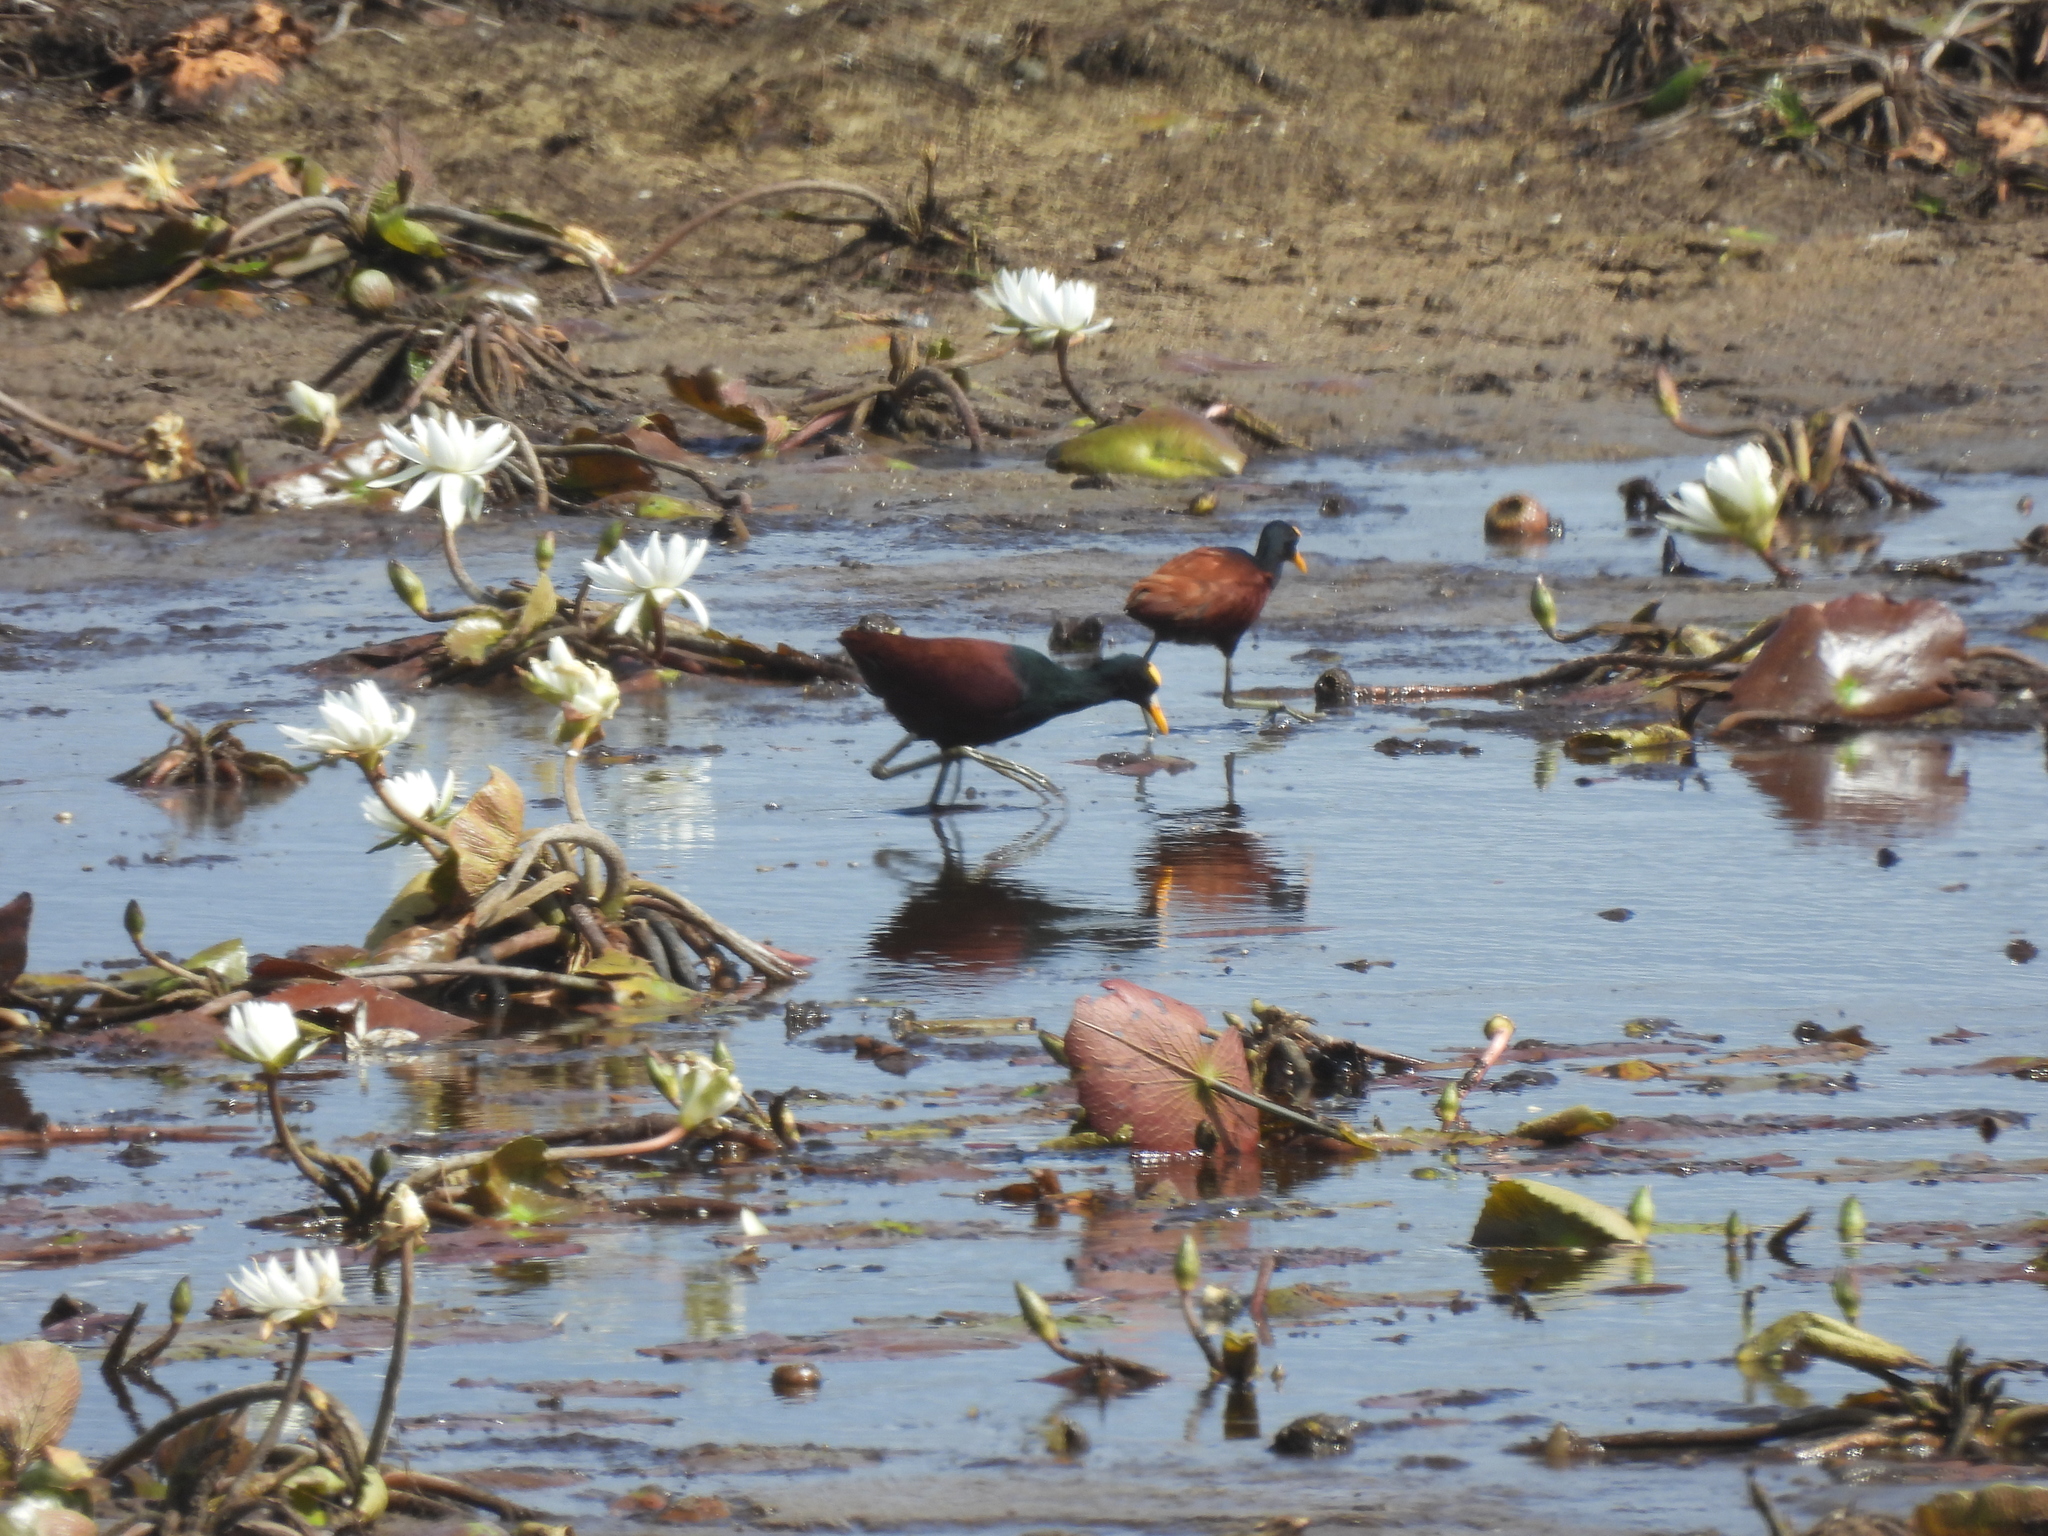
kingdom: Animalia
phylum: Chordata
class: Aves
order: Charadriiformes
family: Jacanidae
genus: Jacana
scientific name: Jacana spinosa
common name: Northern jacana
